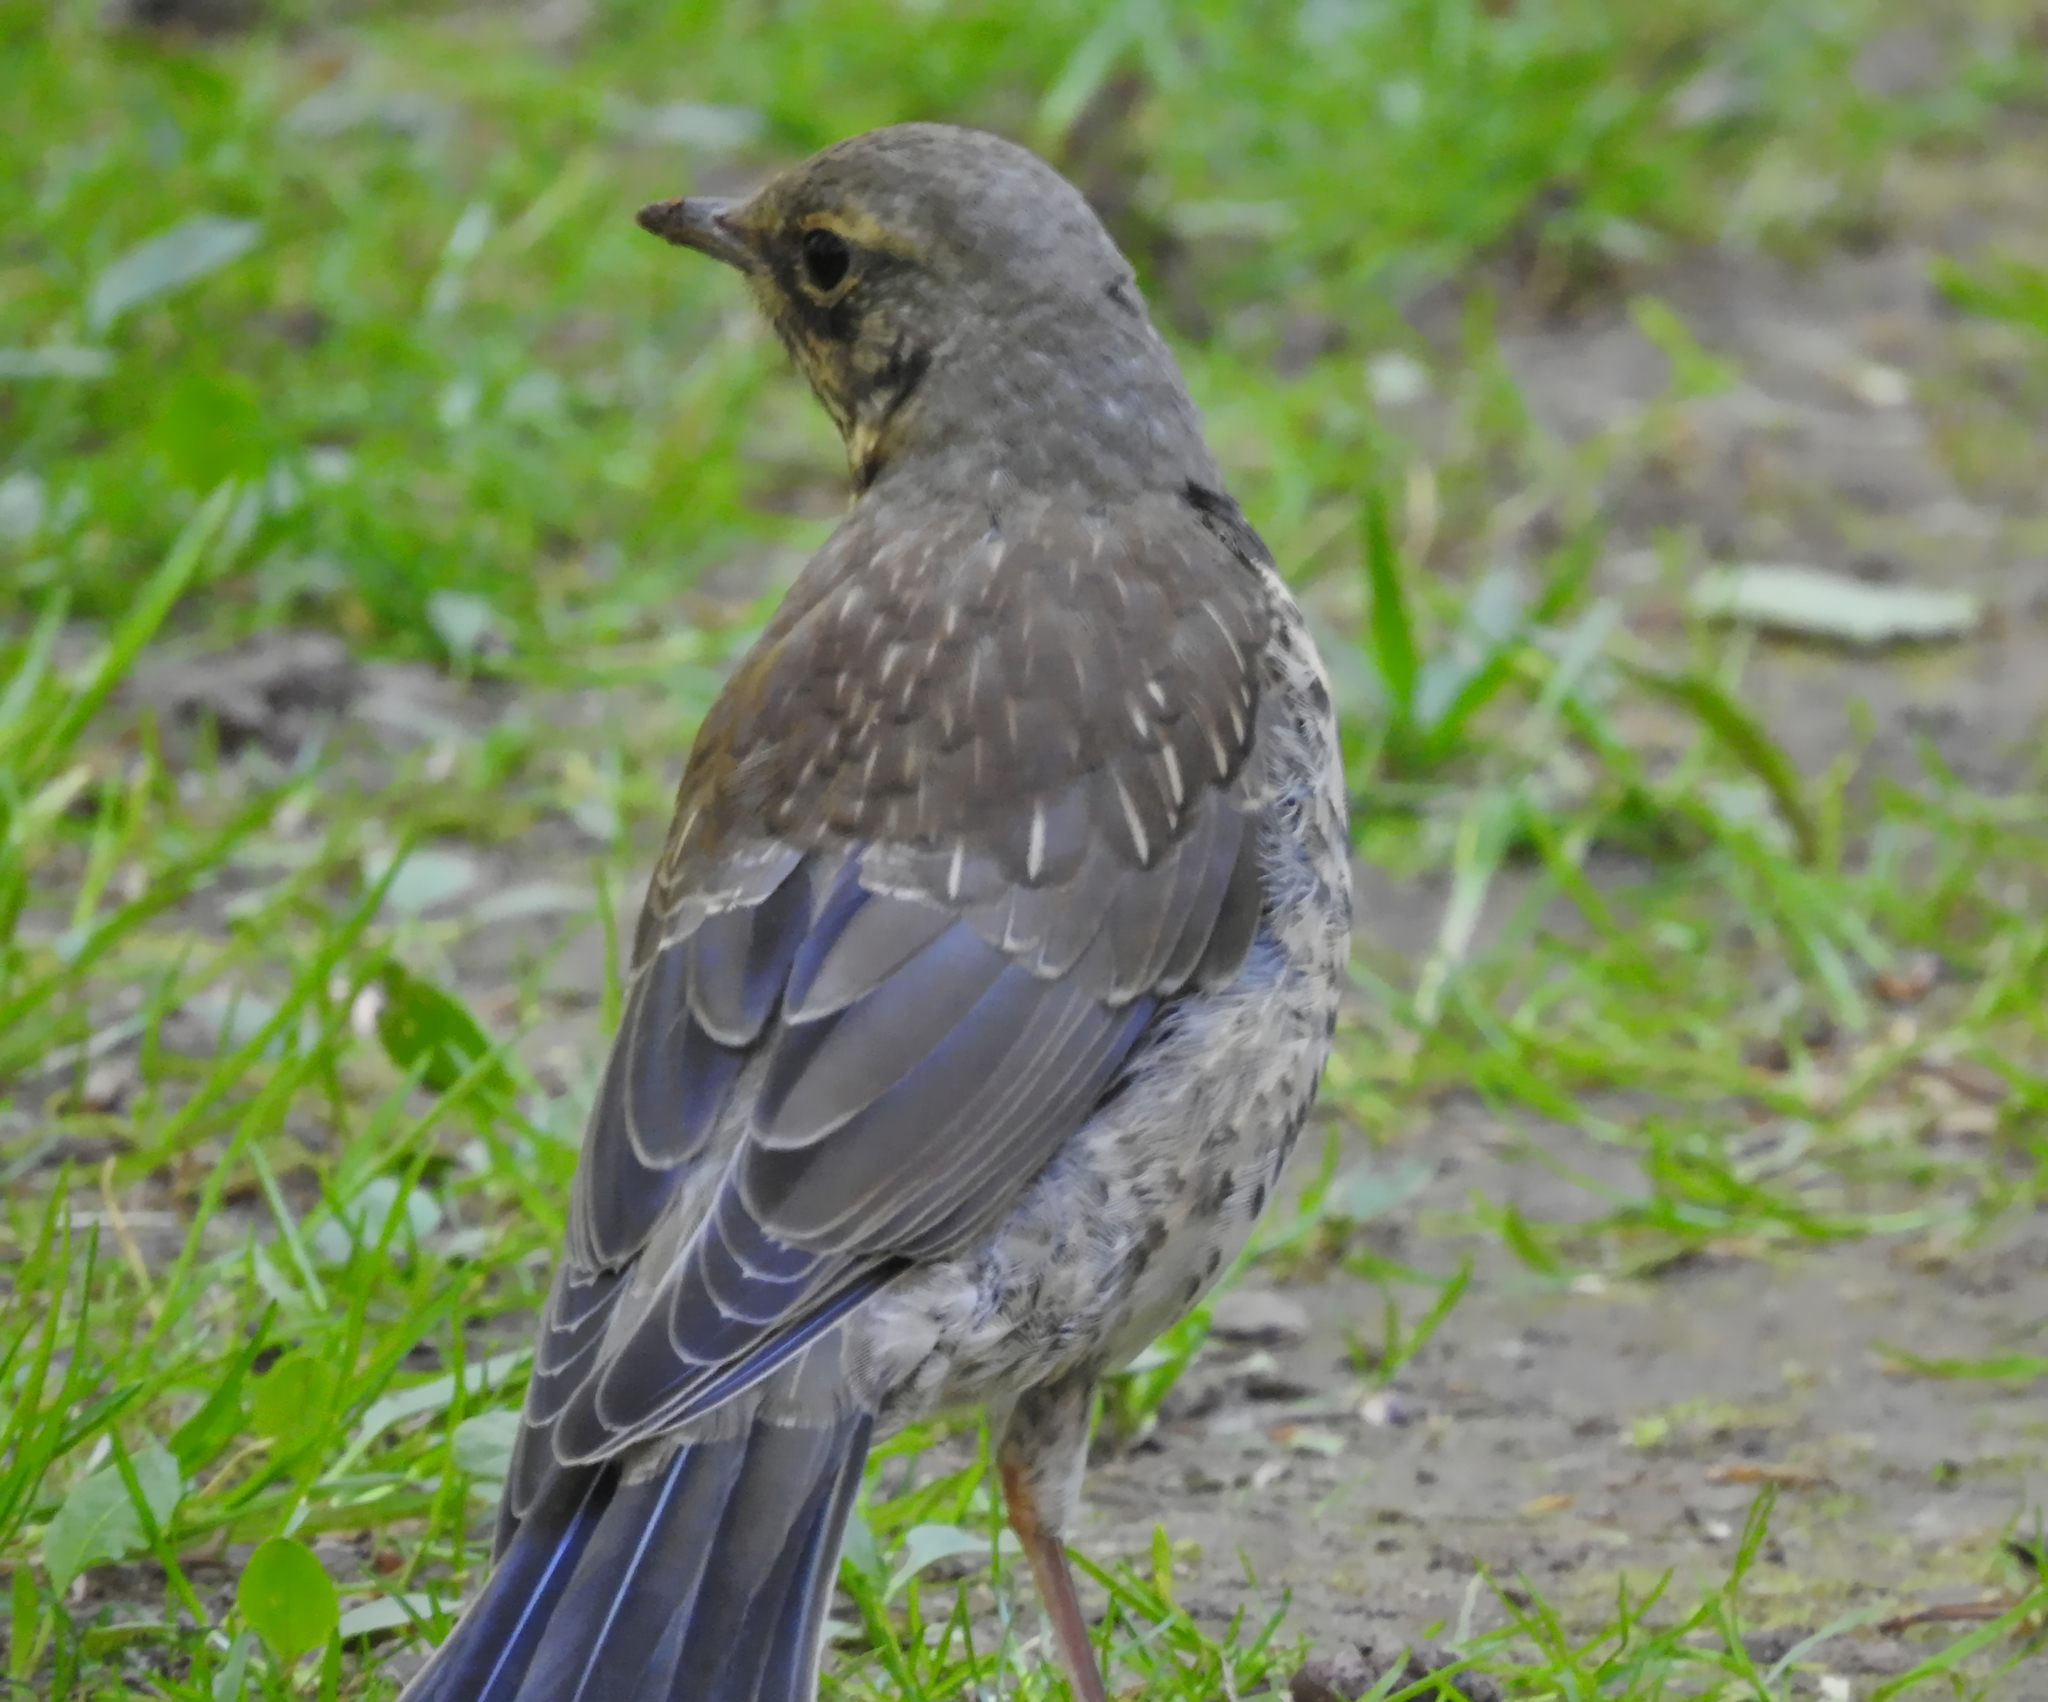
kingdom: Animalia
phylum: Chordata
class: Aves
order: Passeriformes
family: Turdidae
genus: Turdus
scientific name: Turdus pilaris
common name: Fieldfare
